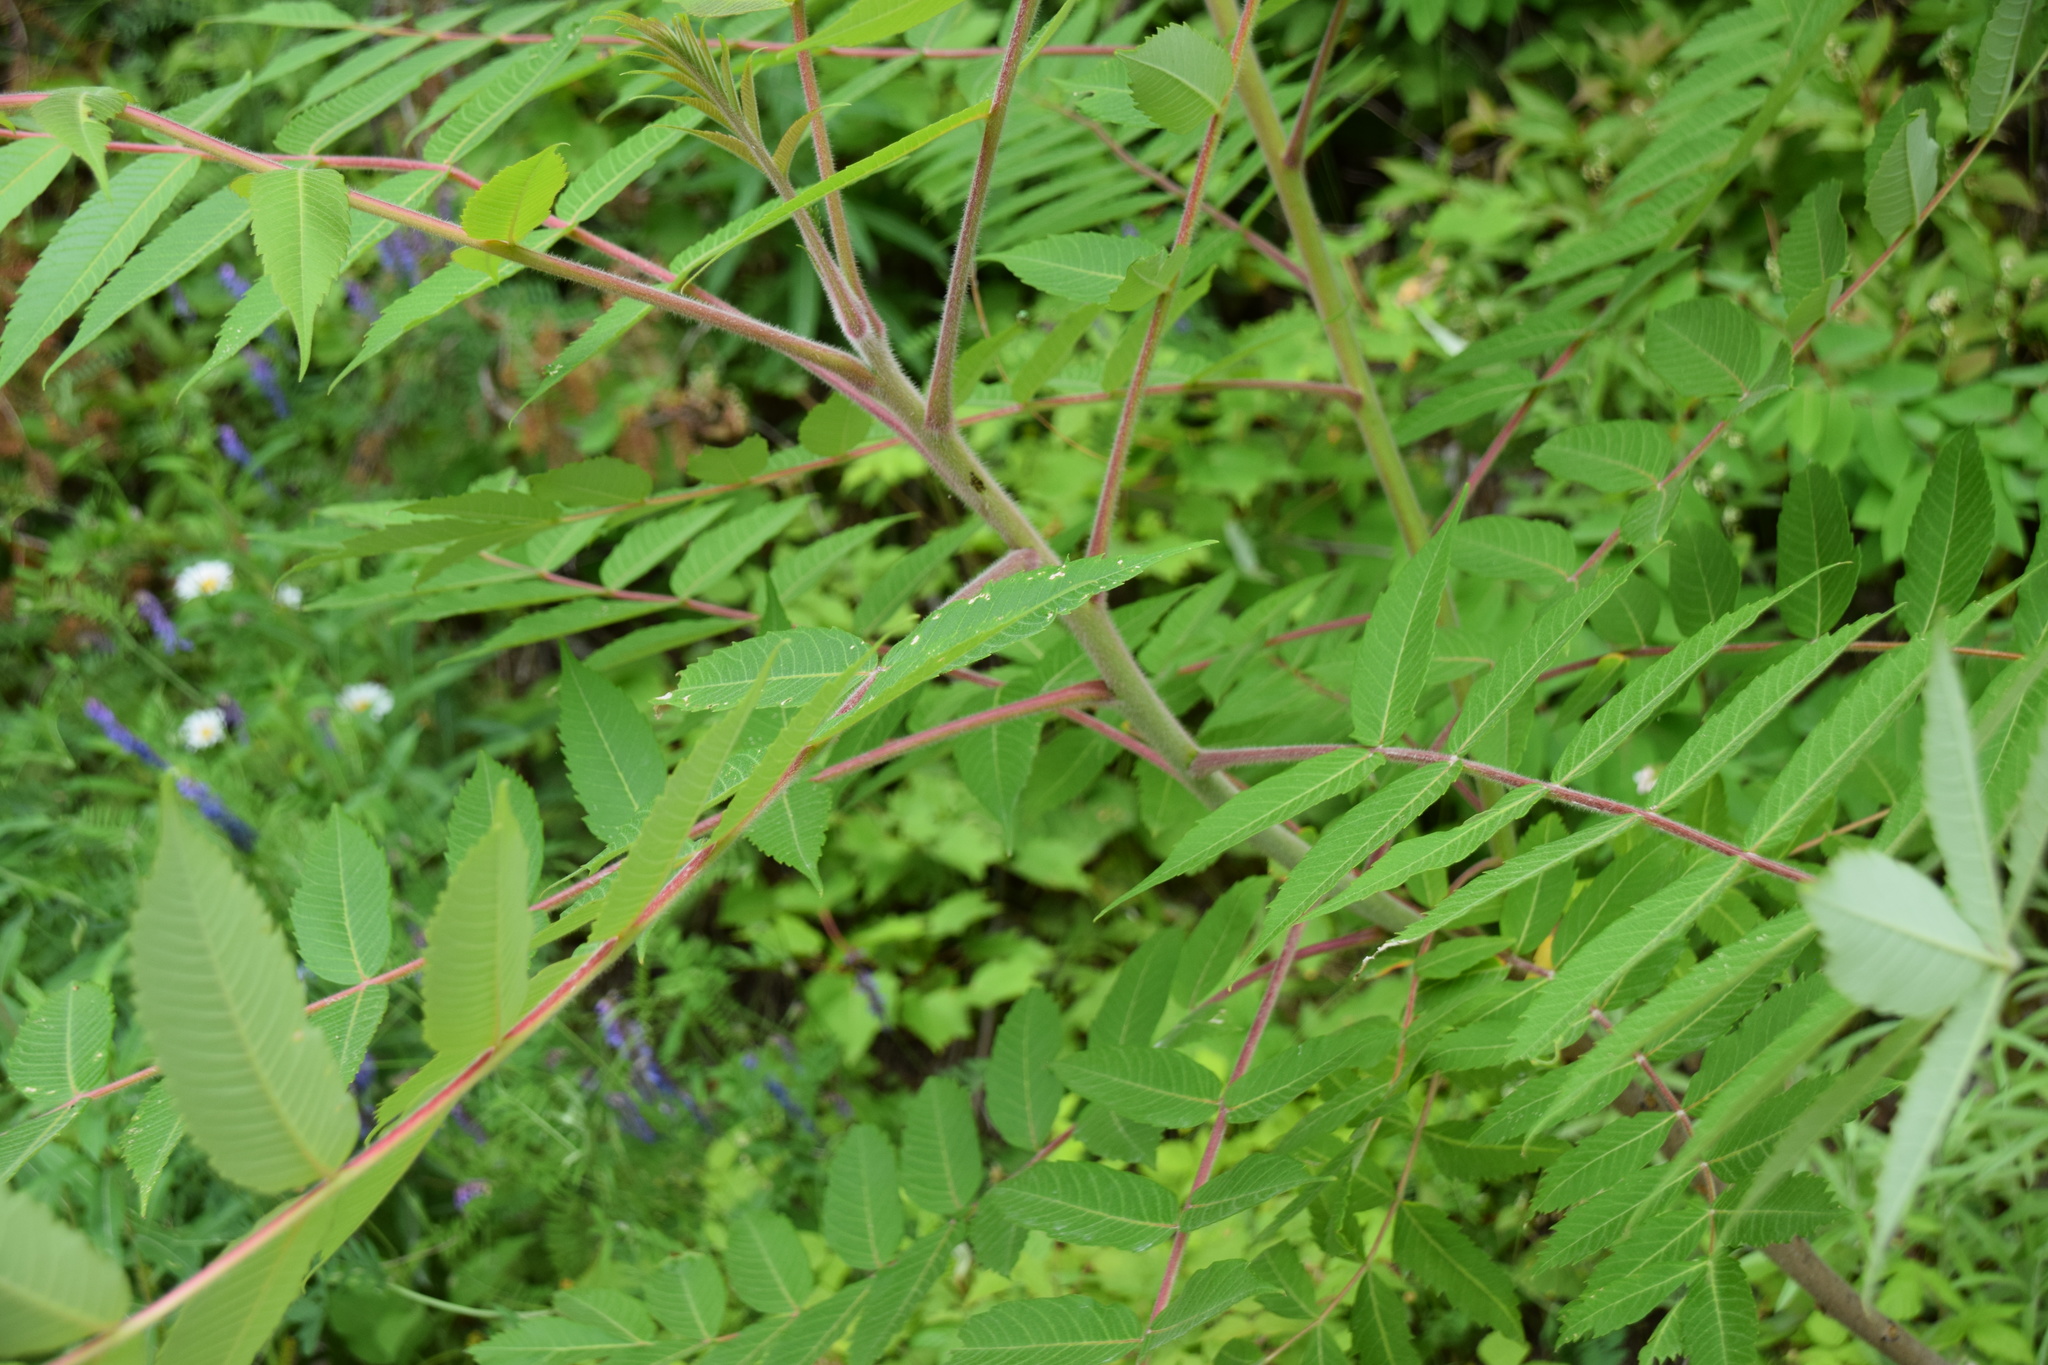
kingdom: Plantae
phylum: Tracheophyta
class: Magnoliopsida
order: Sapindales
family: Anacardiaceae
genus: Rhus
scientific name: Rhus typhina
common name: Staghorn sumac
